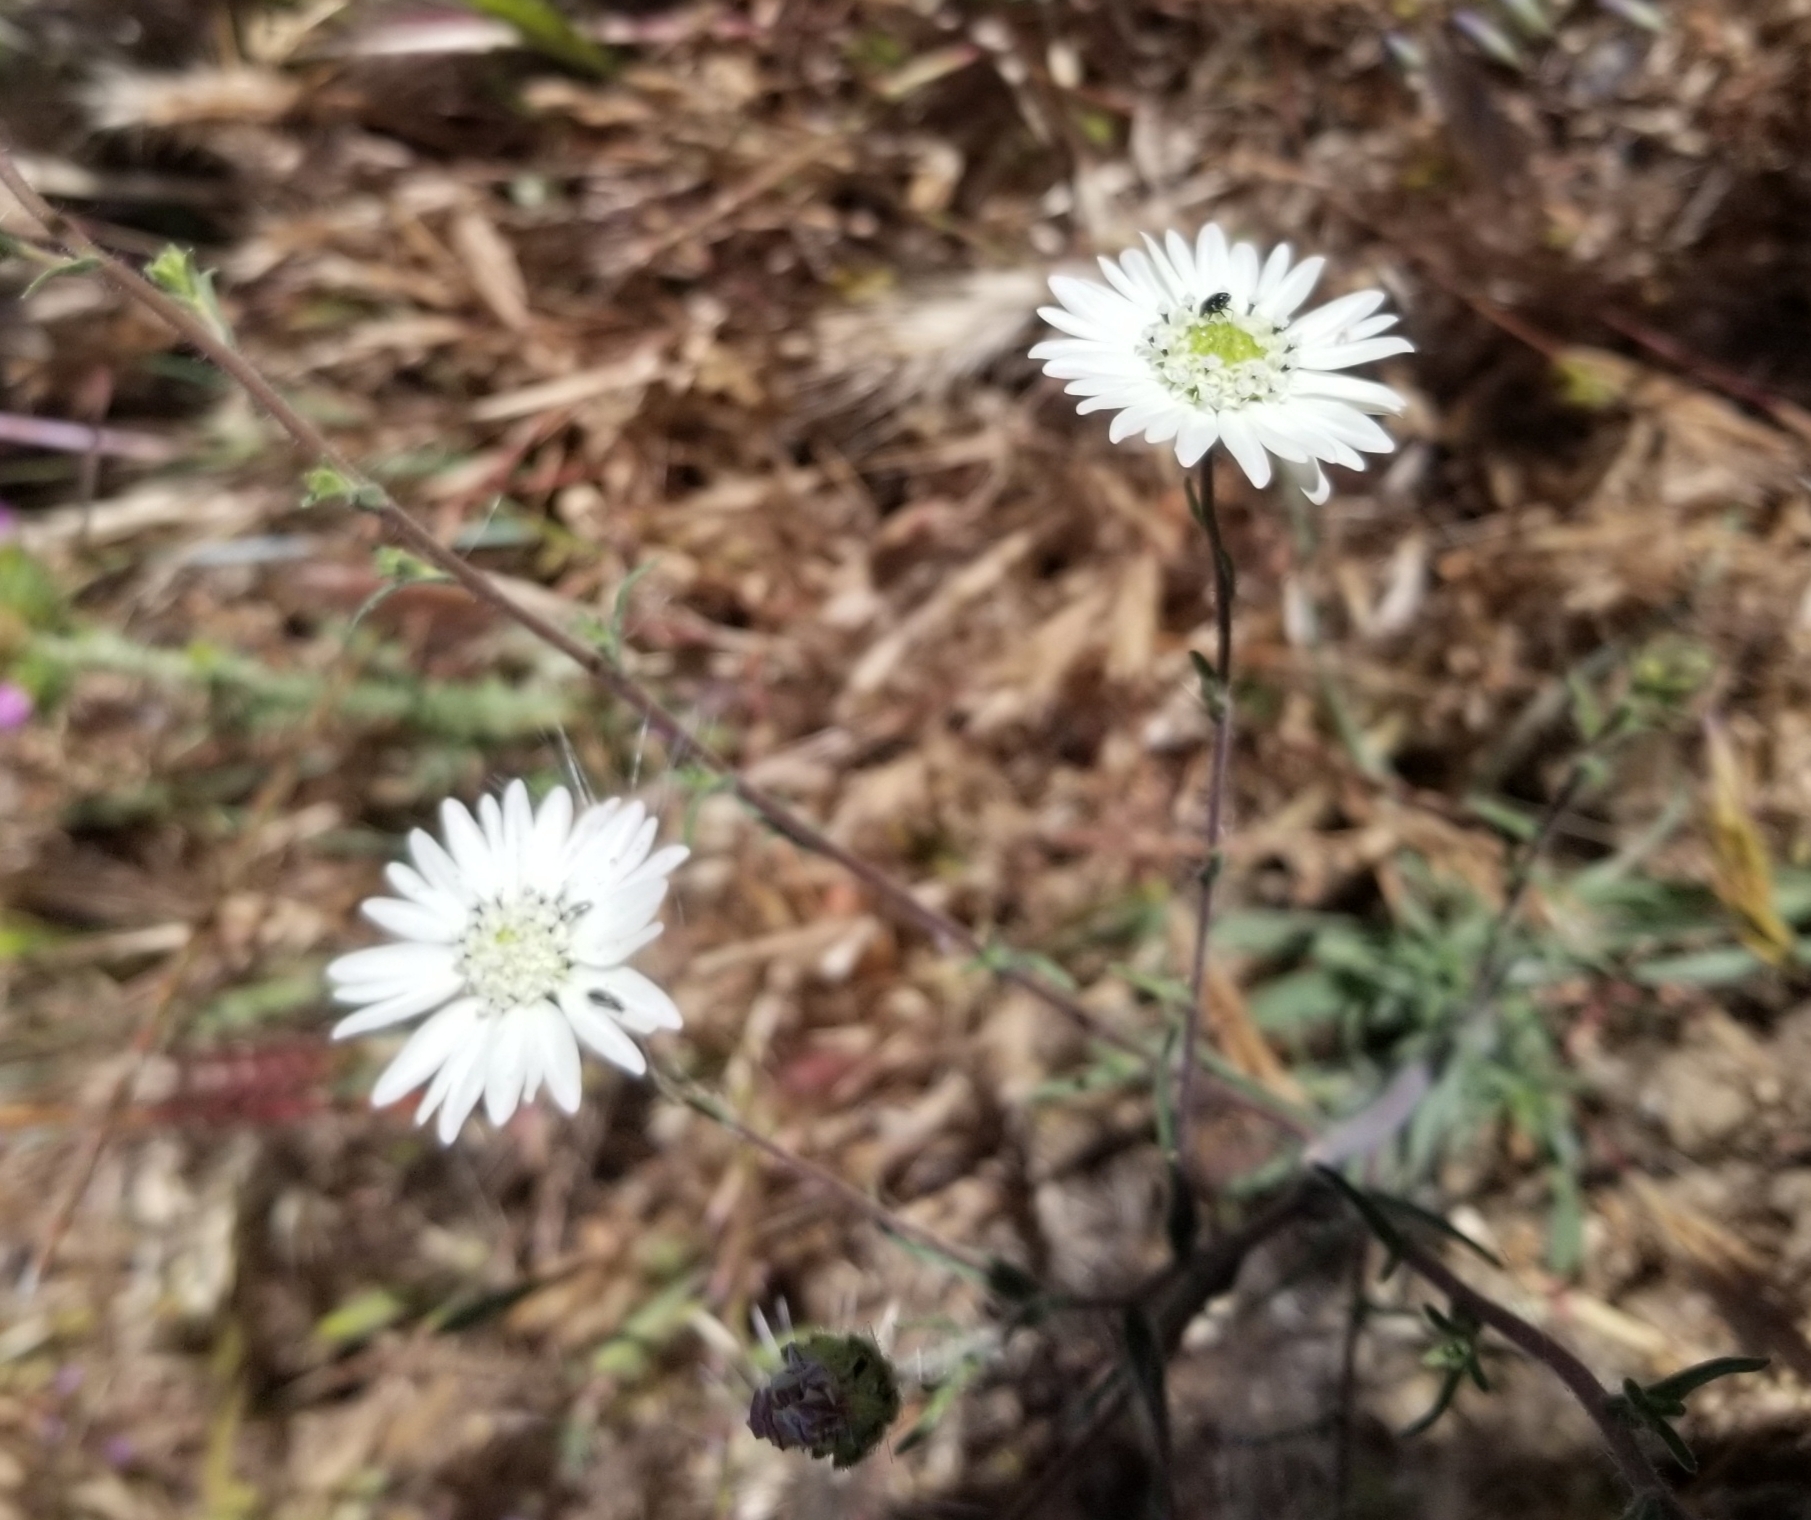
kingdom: Plantae
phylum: Tracheophyta
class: Magnoliopsida
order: Asterales
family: Asteraceae
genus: Hemizonia
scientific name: Hemizonia congesta
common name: Hayfield tarweed
